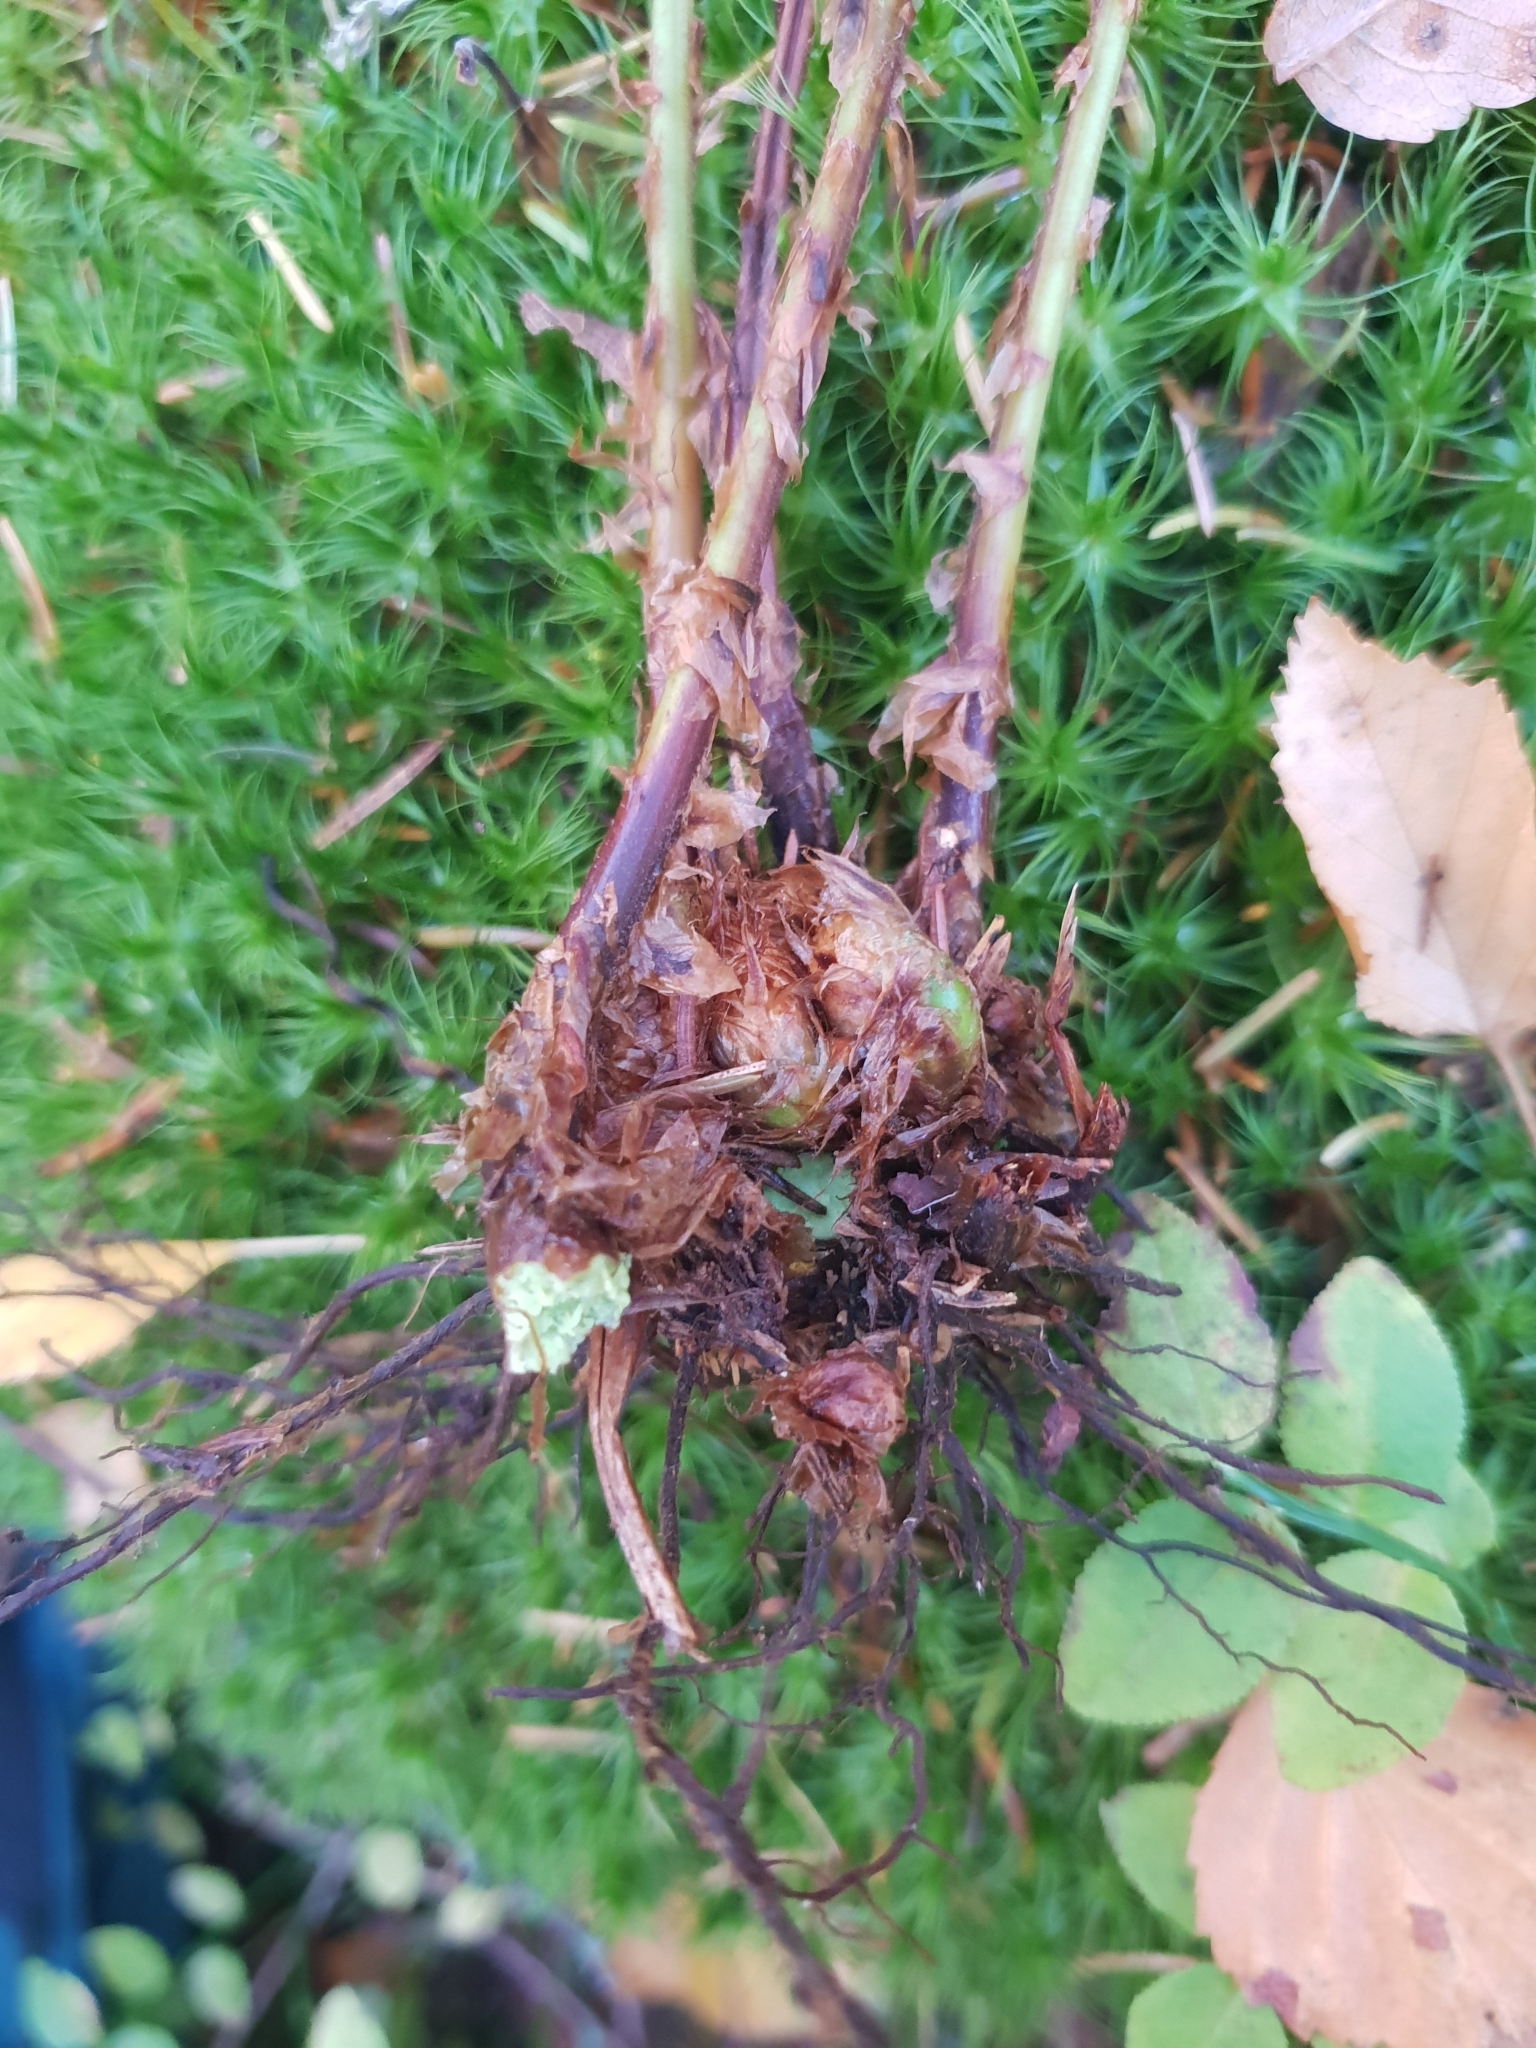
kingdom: Plantae
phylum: Tracheophyta
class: Polypodiopsida
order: Polypodiales
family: Dryopteridaceae
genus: Dryopteris
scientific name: Dryopteris dilatata
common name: Broad buckler-fern
